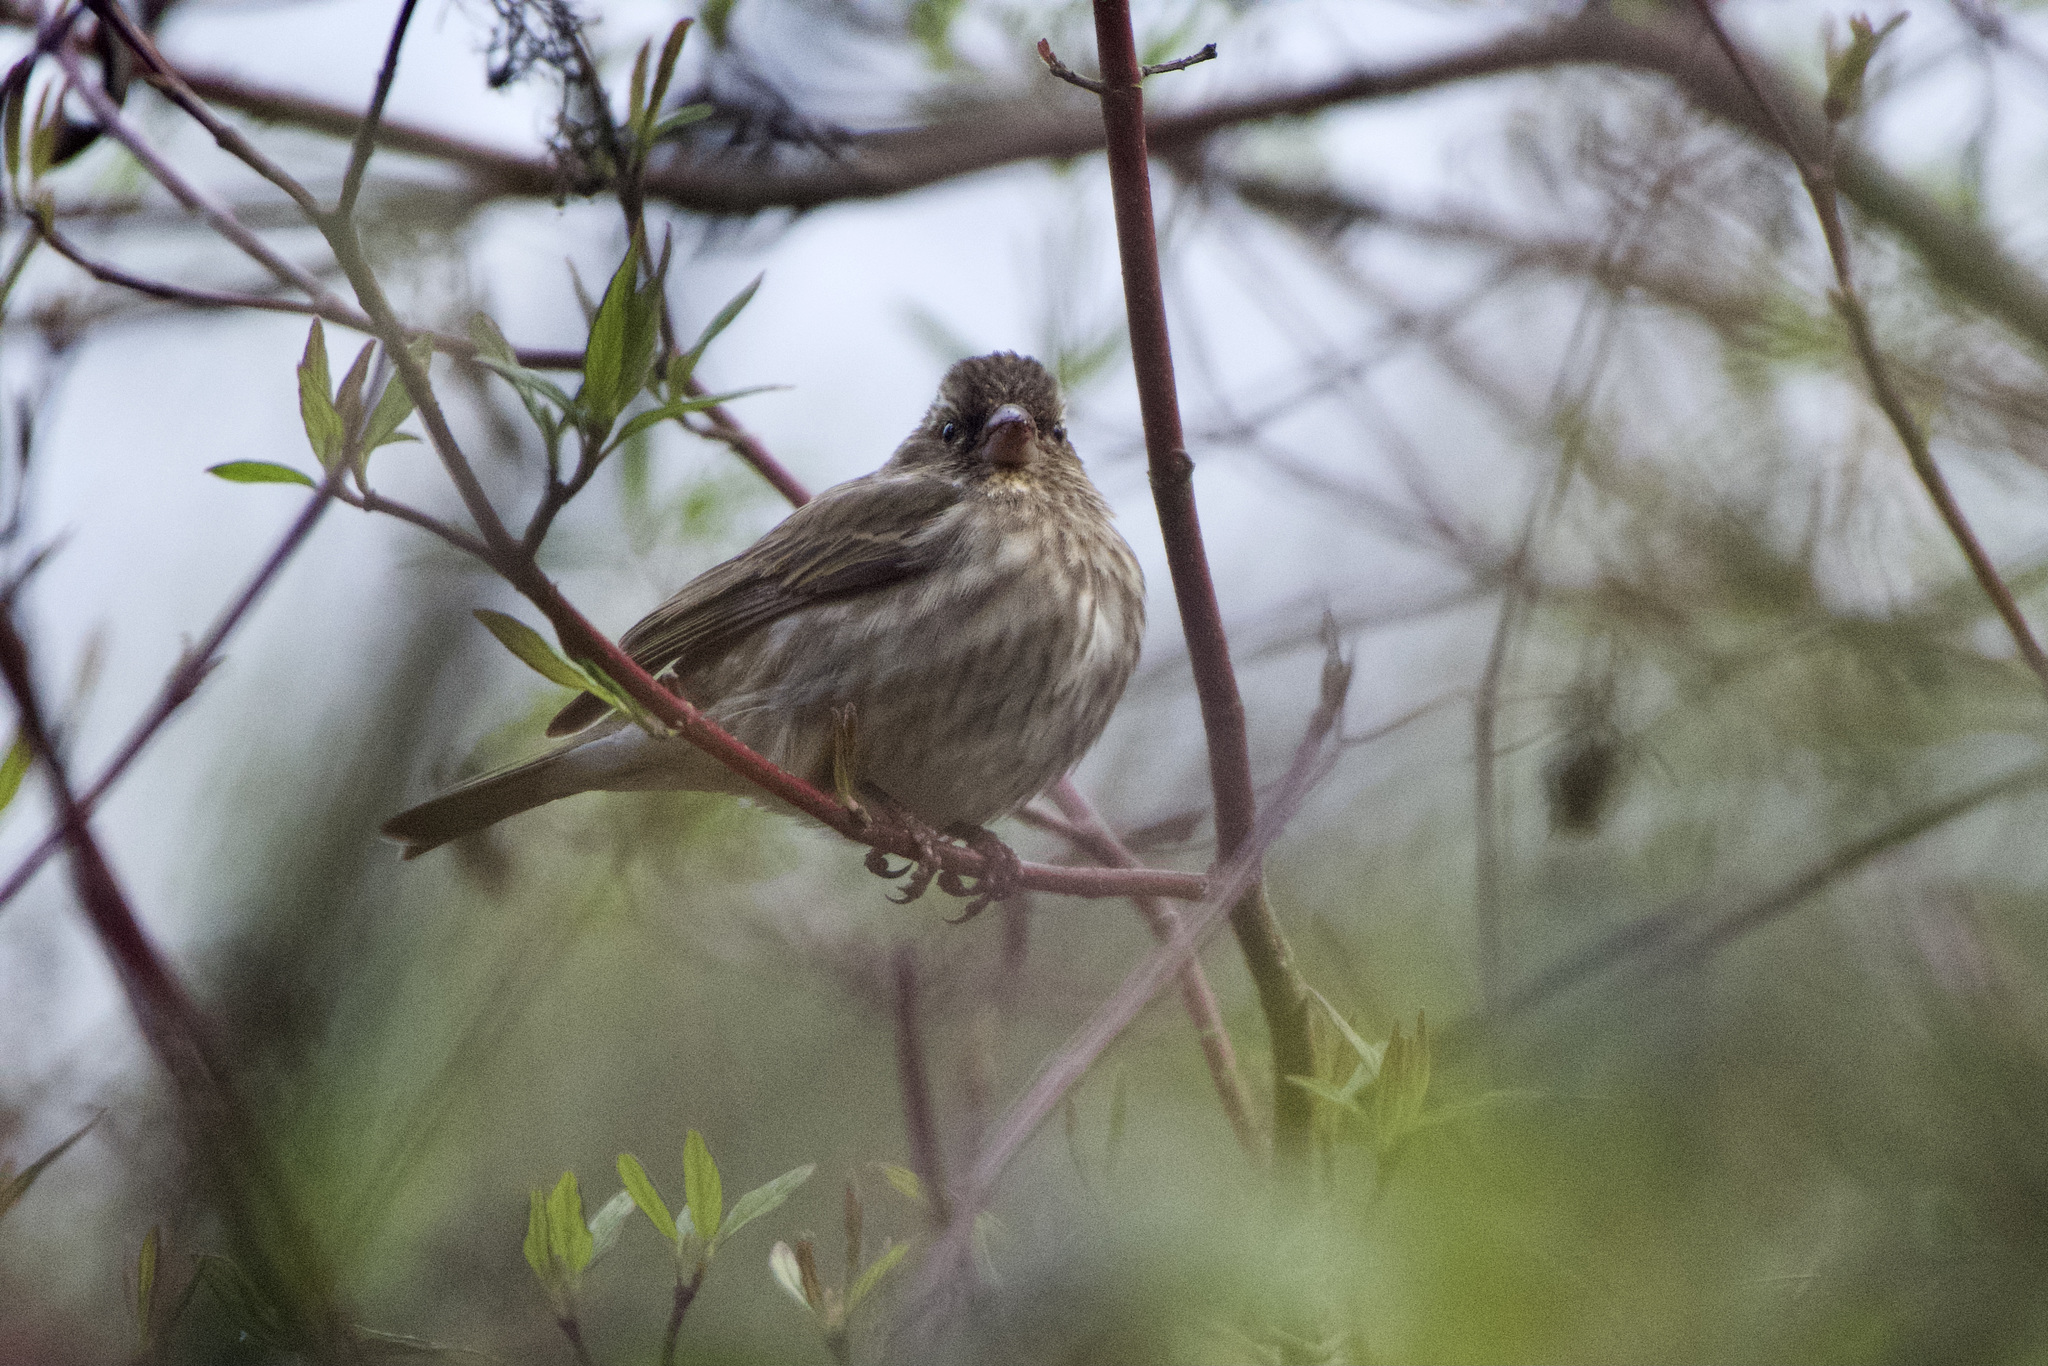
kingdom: Animalia
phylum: Chordata
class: Aves
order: Passeriformes
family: Fringillidae
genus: Haemorhous
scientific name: Haemorhous purpureus
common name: Purple finch
